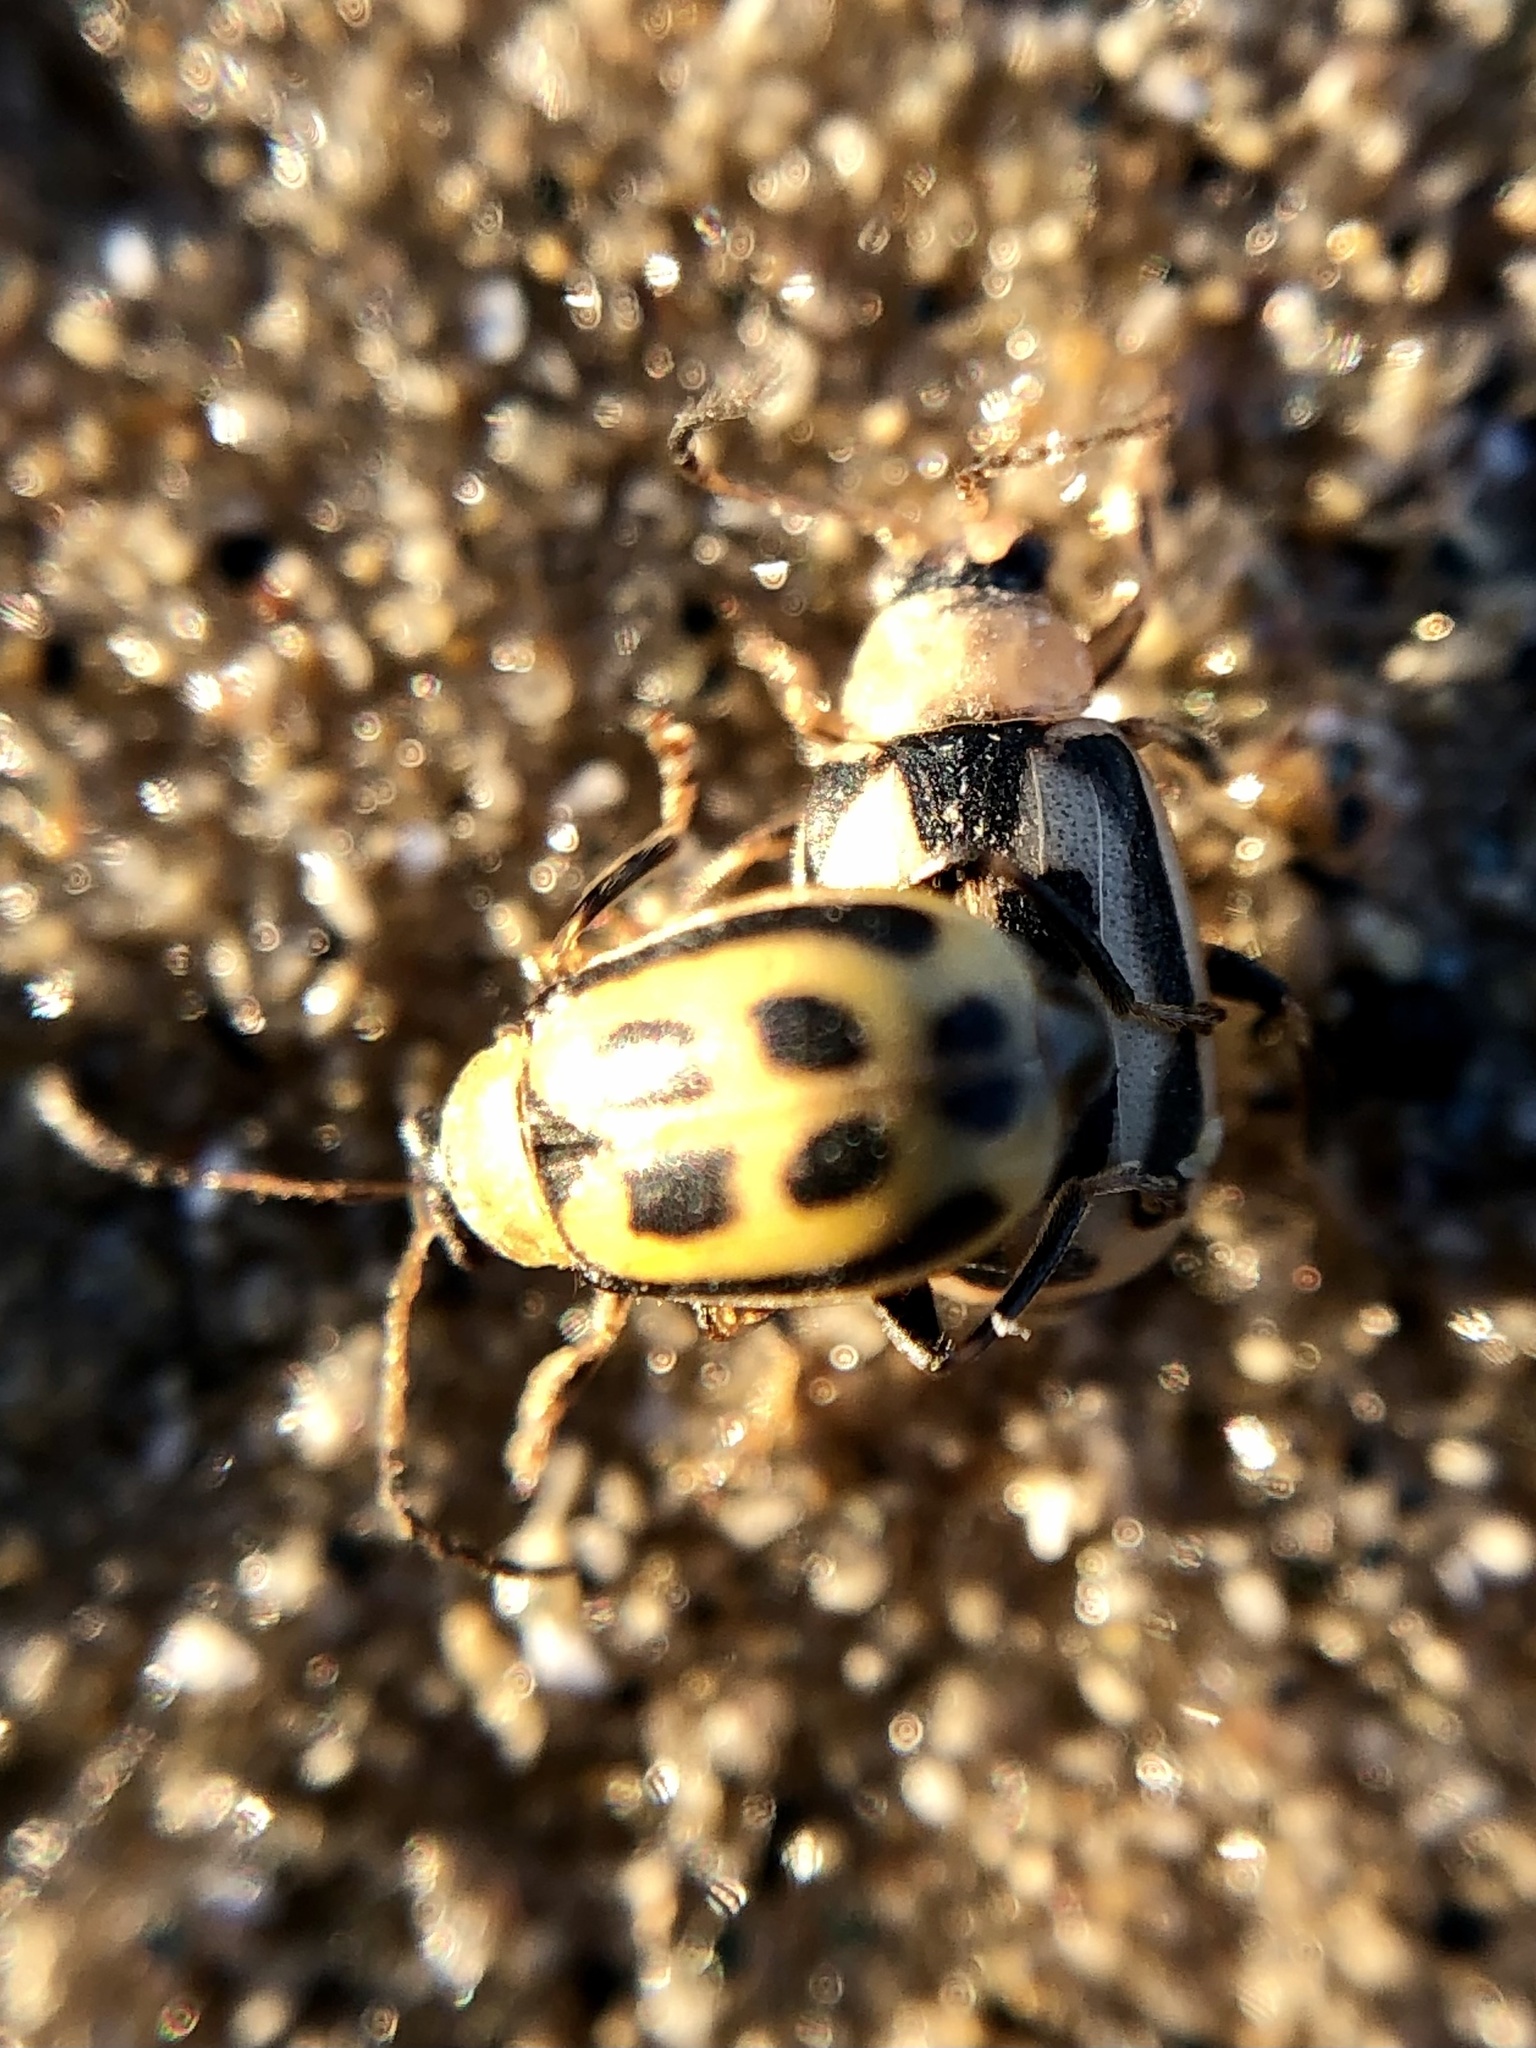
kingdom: Animalia
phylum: Arthropoda
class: Insecta
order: Coleoptera
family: Chrysomelidae
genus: Cerotoma
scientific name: Cerotoma trifurcata
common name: Bean leaf beetle
